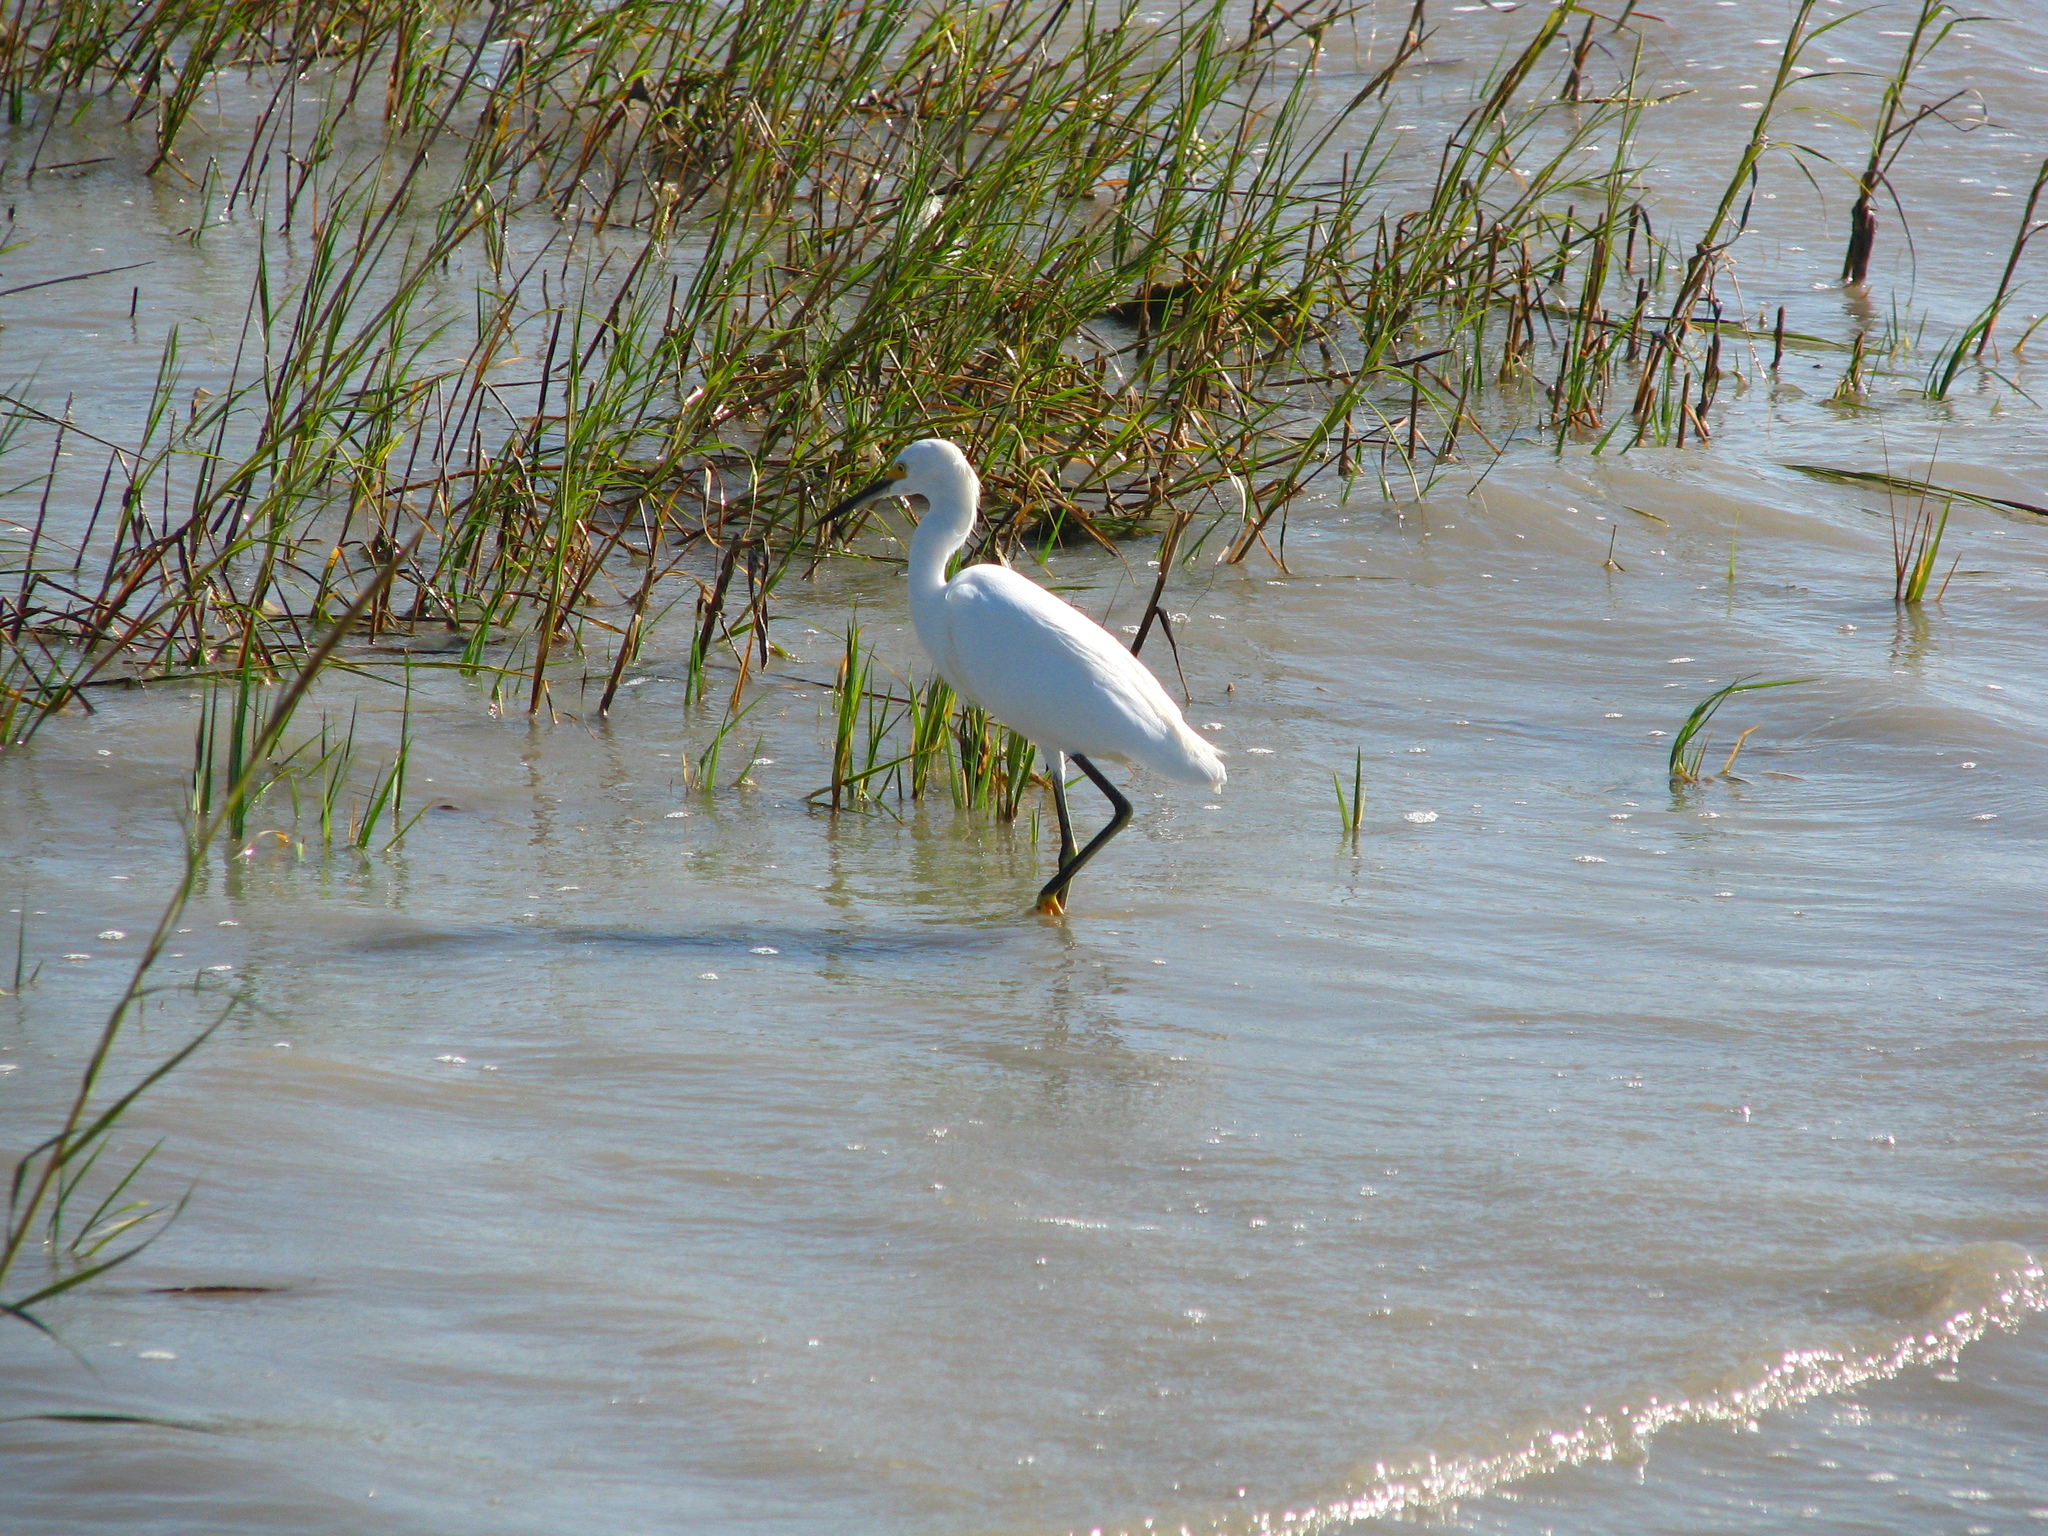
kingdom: Animalia
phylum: Chordata
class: Aves
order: Pelecaniformes
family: Ardeidae
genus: Egretta
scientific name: Egretta thula
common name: Snowy egret
